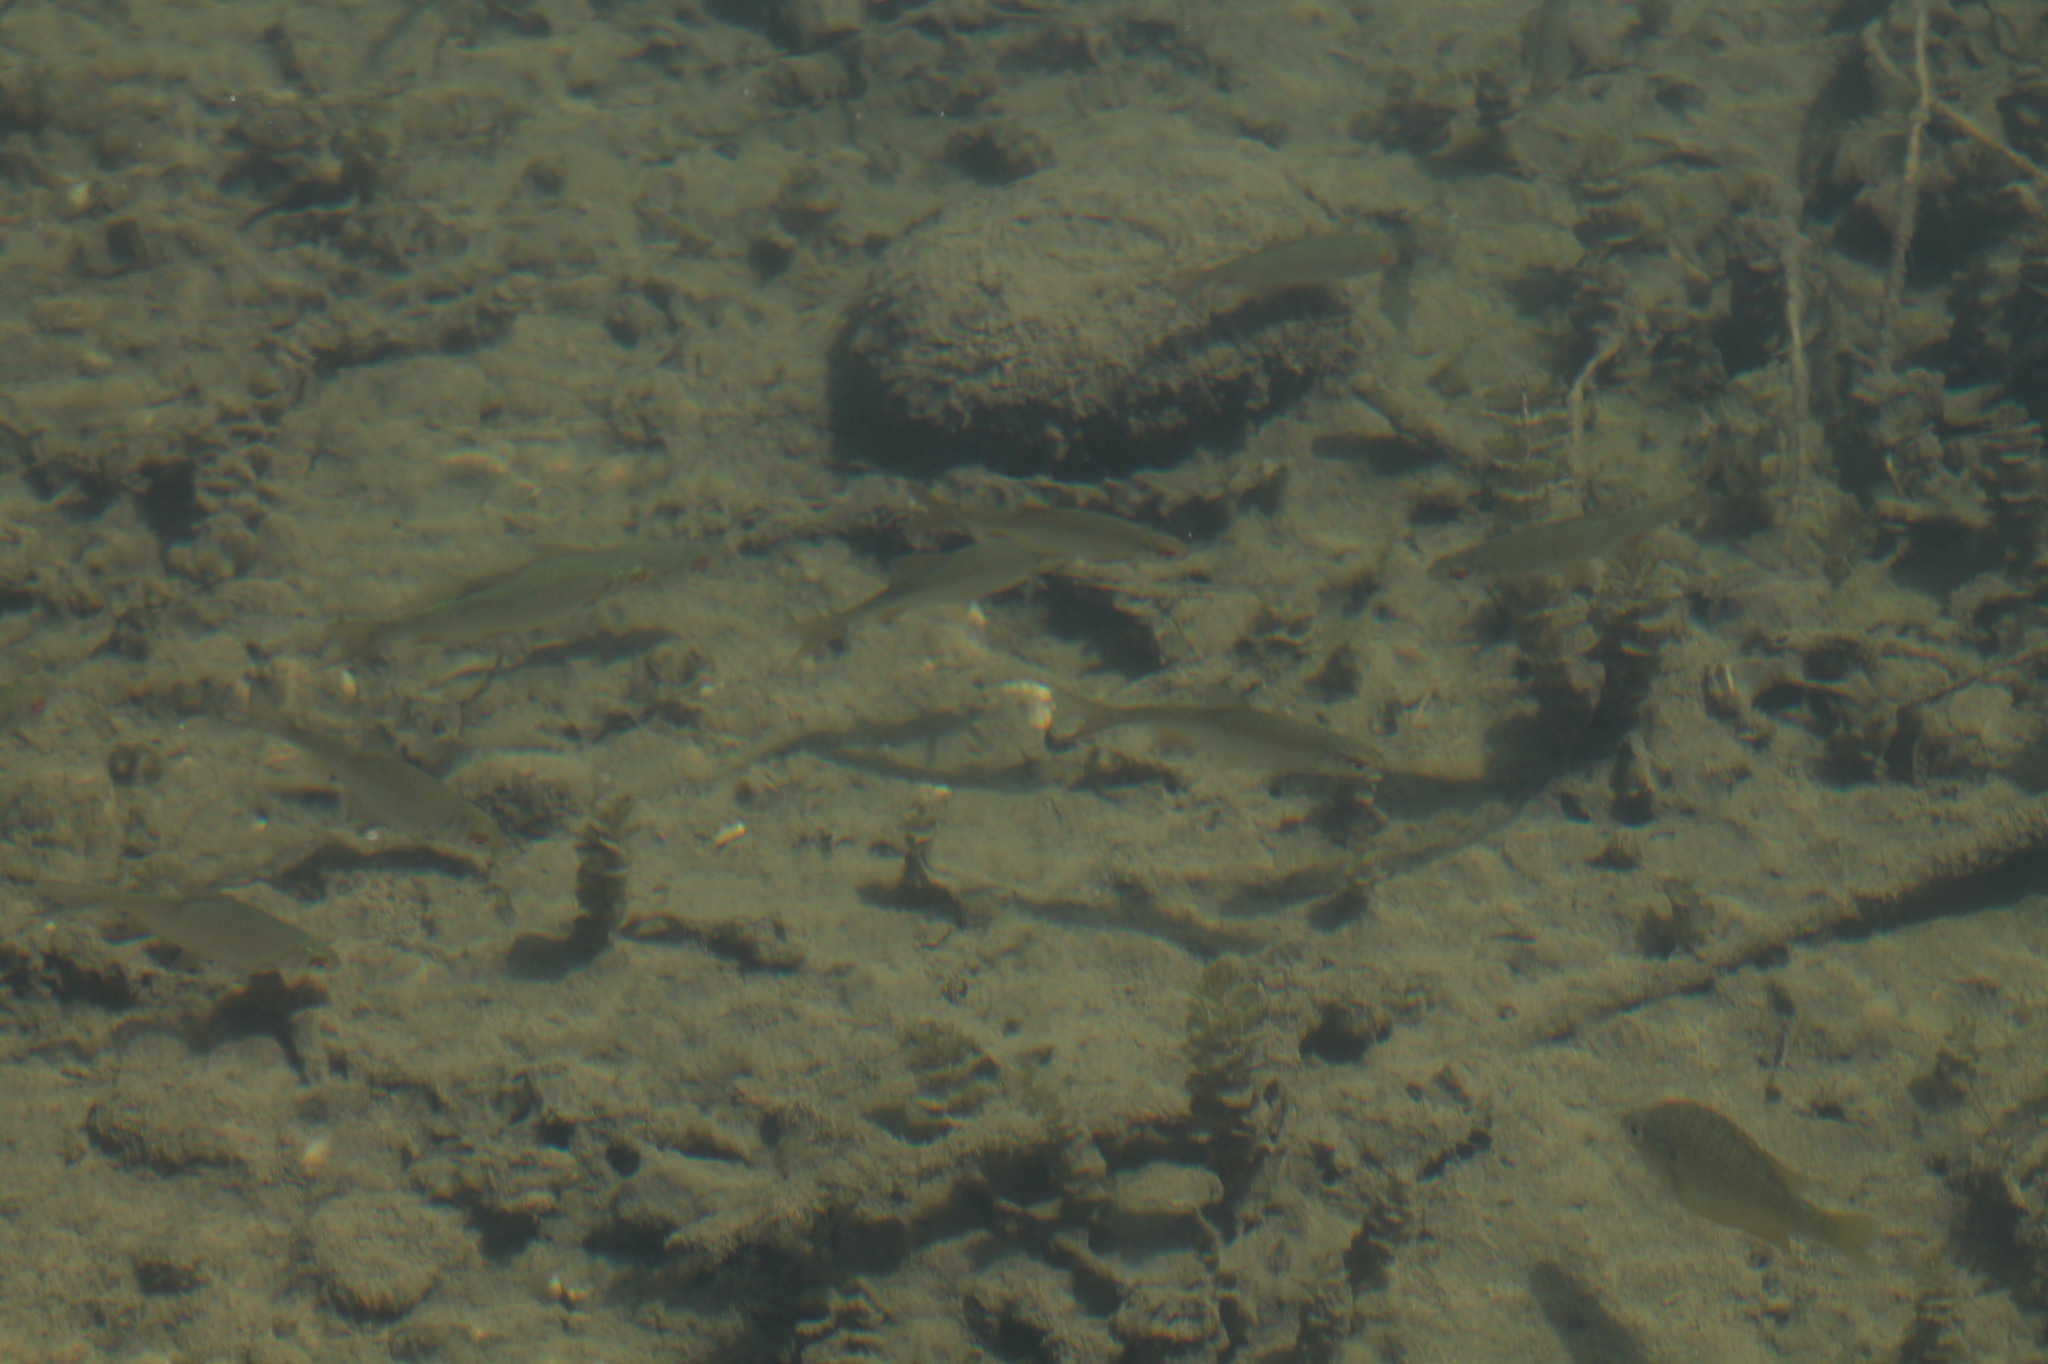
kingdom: Animalia
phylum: Chordata
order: Cypriniformes
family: Cyprinidae
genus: Rutilus
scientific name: Rutilus rutilus
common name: Roach
